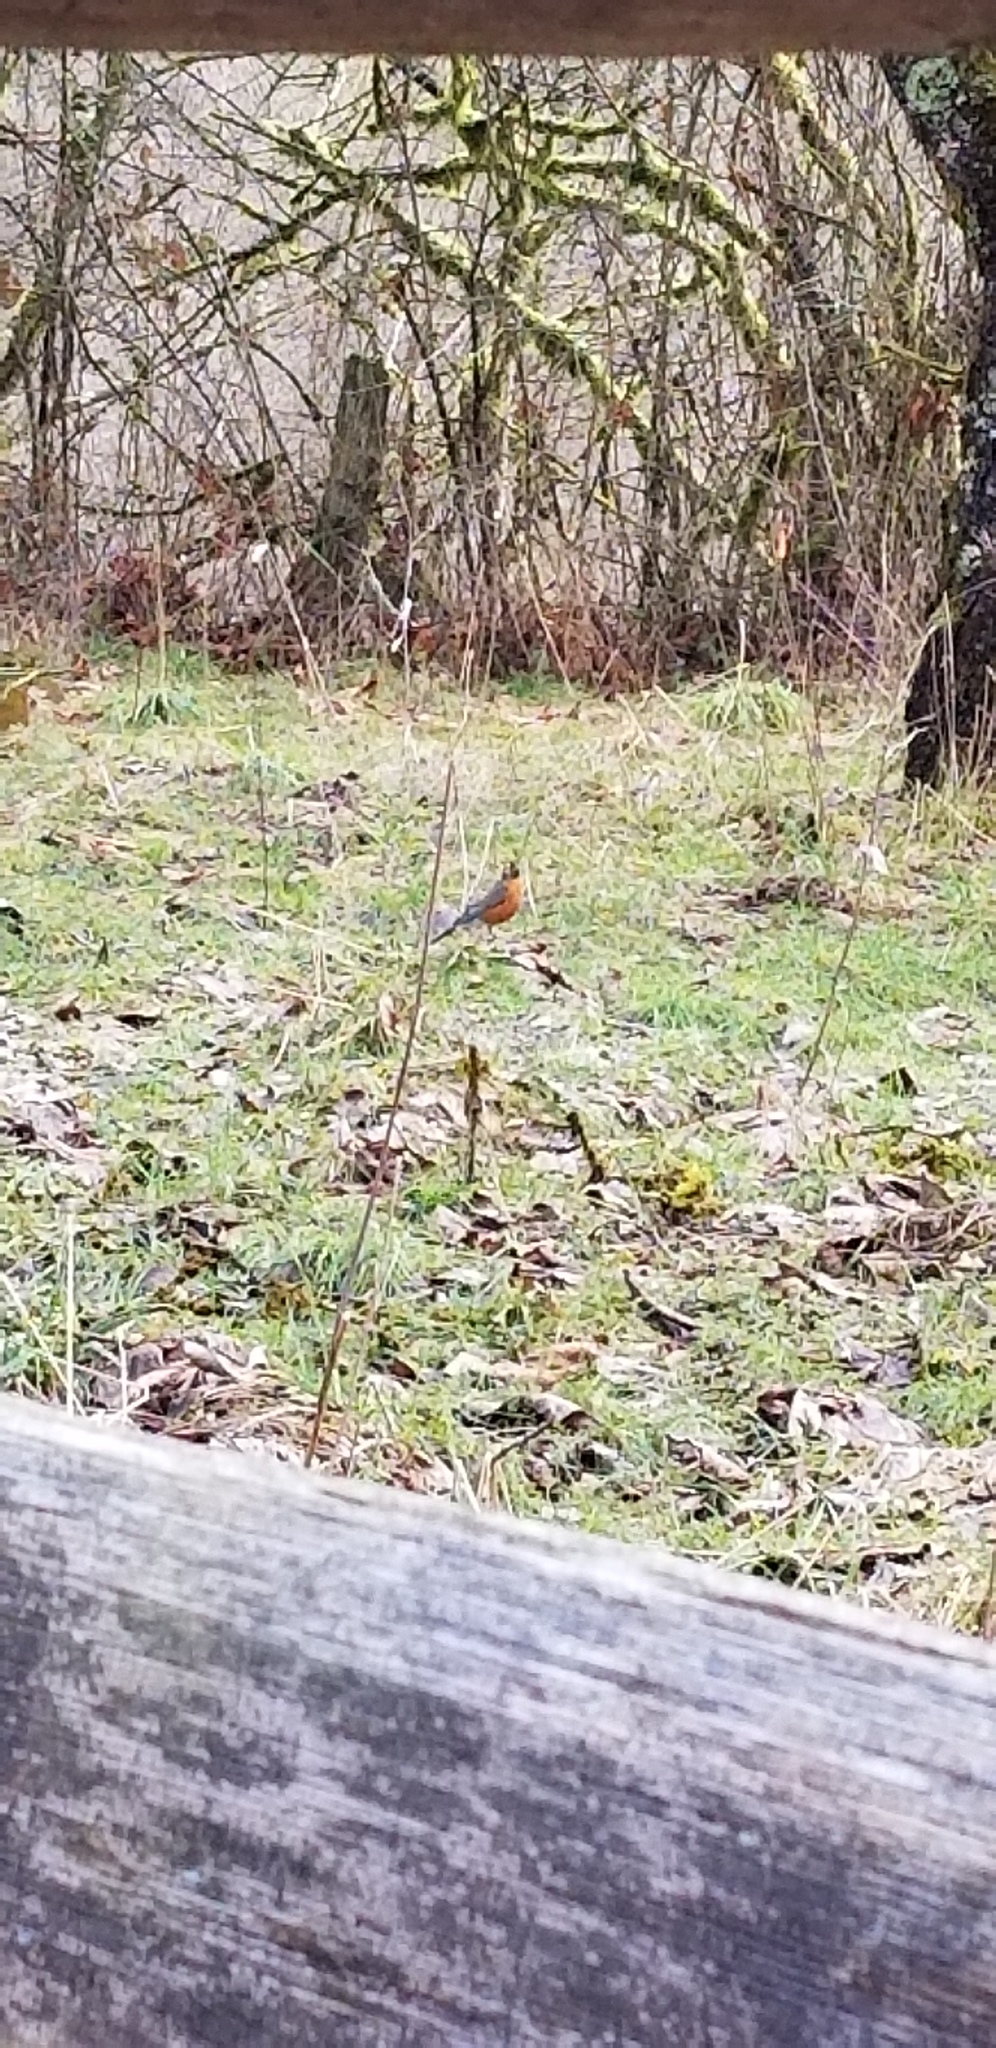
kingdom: Animalia
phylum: Chordata
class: Aves
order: Passeriformes
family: Turdidae
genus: Turdus
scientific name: Turdus migratorius
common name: American robin
